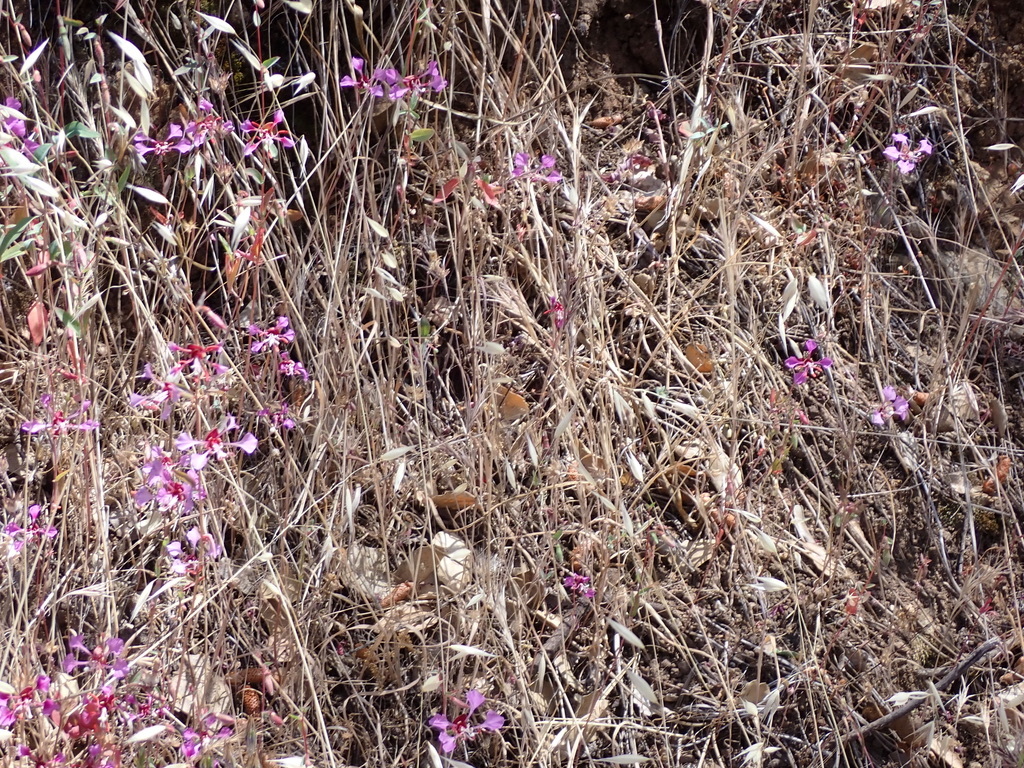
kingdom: Plantae
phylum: Tracheophyta
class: Magnoliopsida
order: Myrtales
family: Onagraceae
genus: Clarkia
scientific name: Clarkia unguiculata
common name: Clarkia
